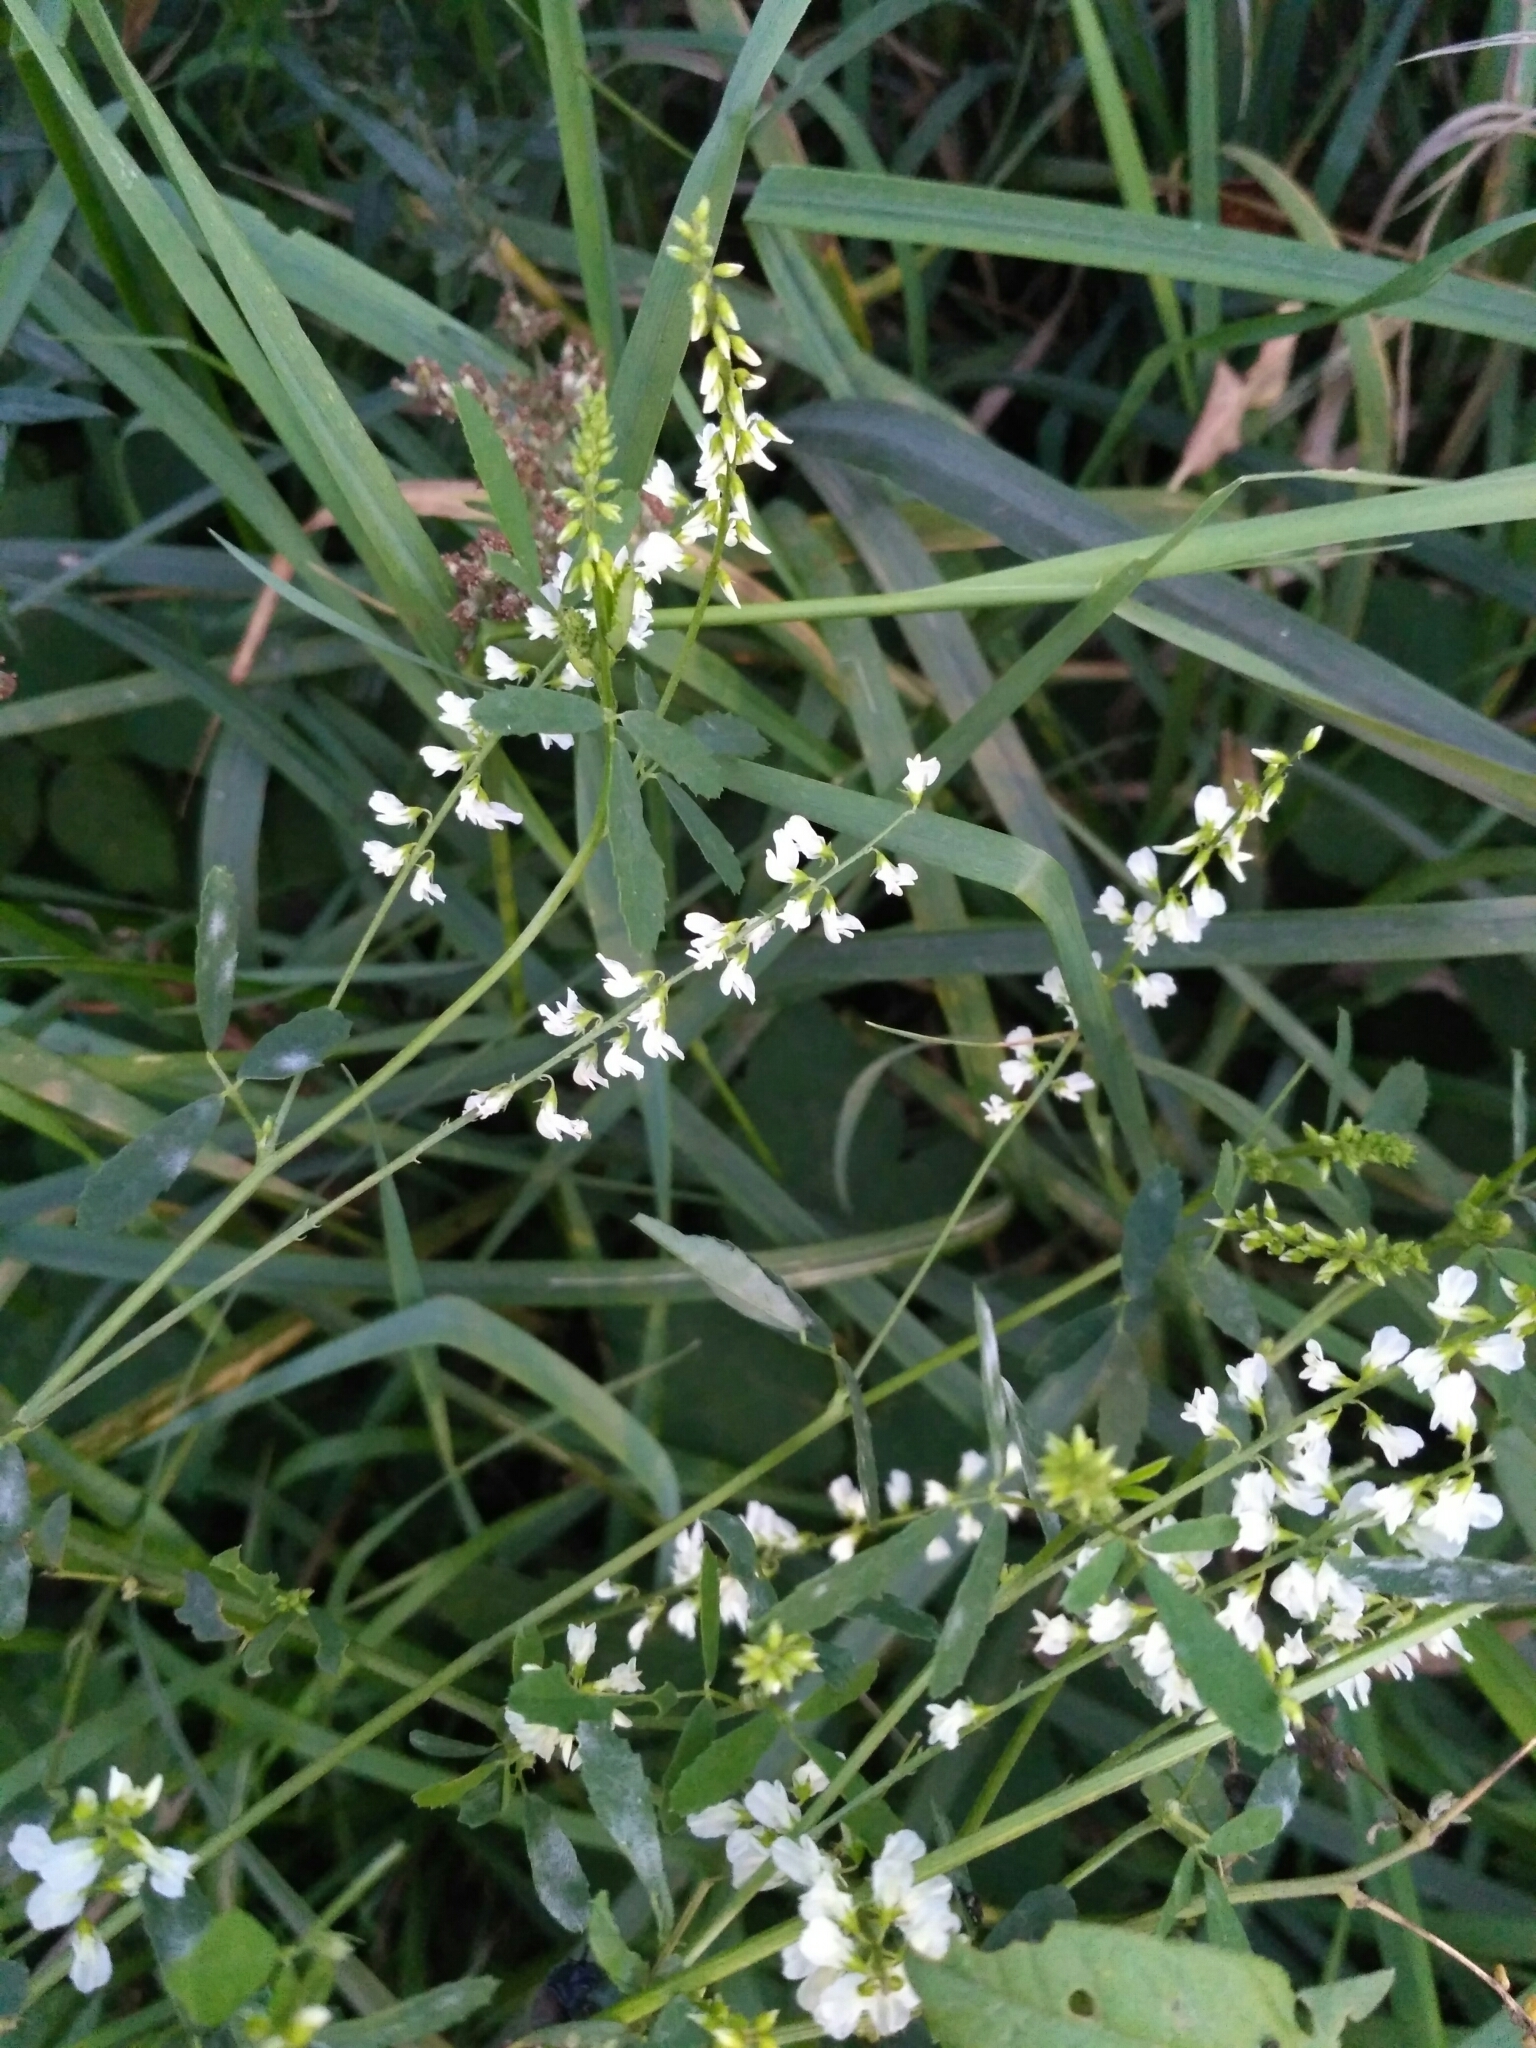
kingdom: Plantae
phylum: Tracheophyta
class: Magnoliopsida
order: Fabales
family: Fabaceae
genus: Melilotus
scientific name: Melilotus albus
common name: White melilot
